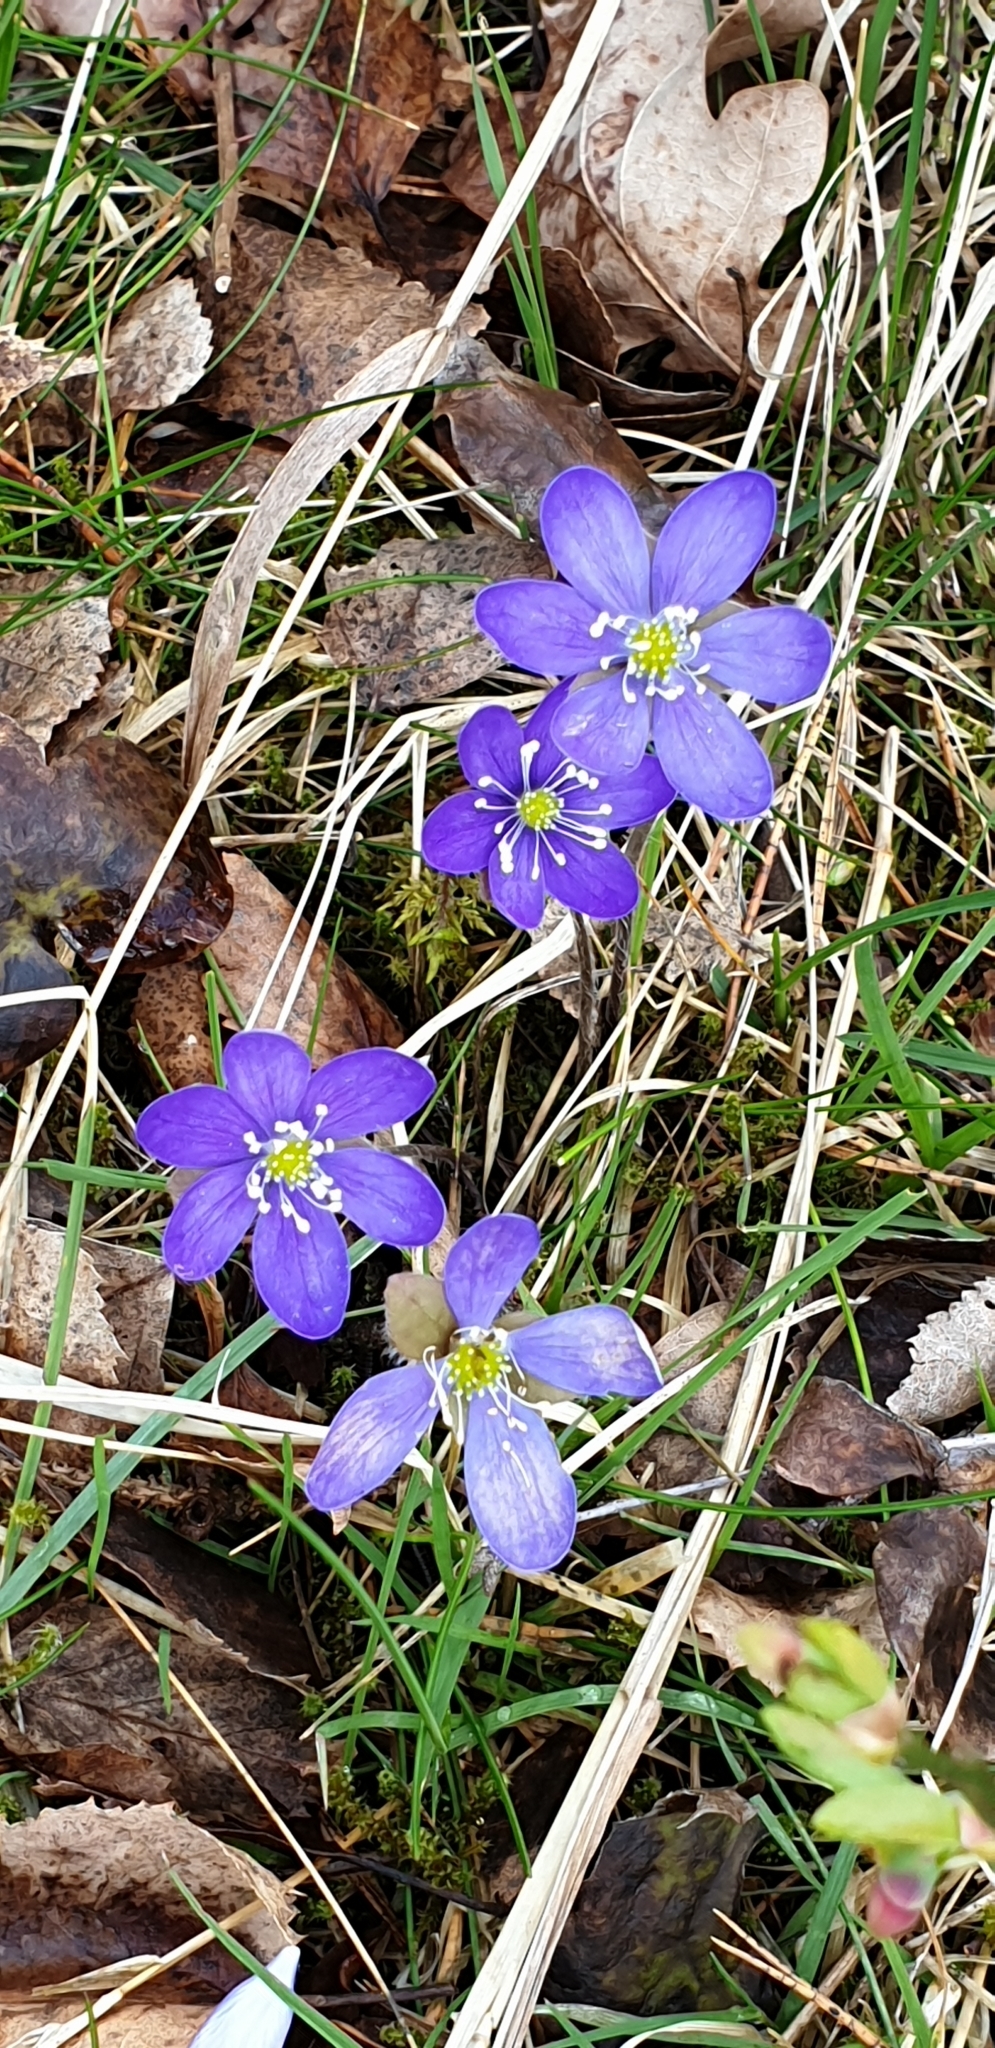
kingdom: Plantae
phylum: Tracheophyta
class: Magnoliopsida
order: Ranunculales
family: Ranunculaceae
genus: Hepatica
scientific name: Hepatica nobilis
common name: Liverleaf
